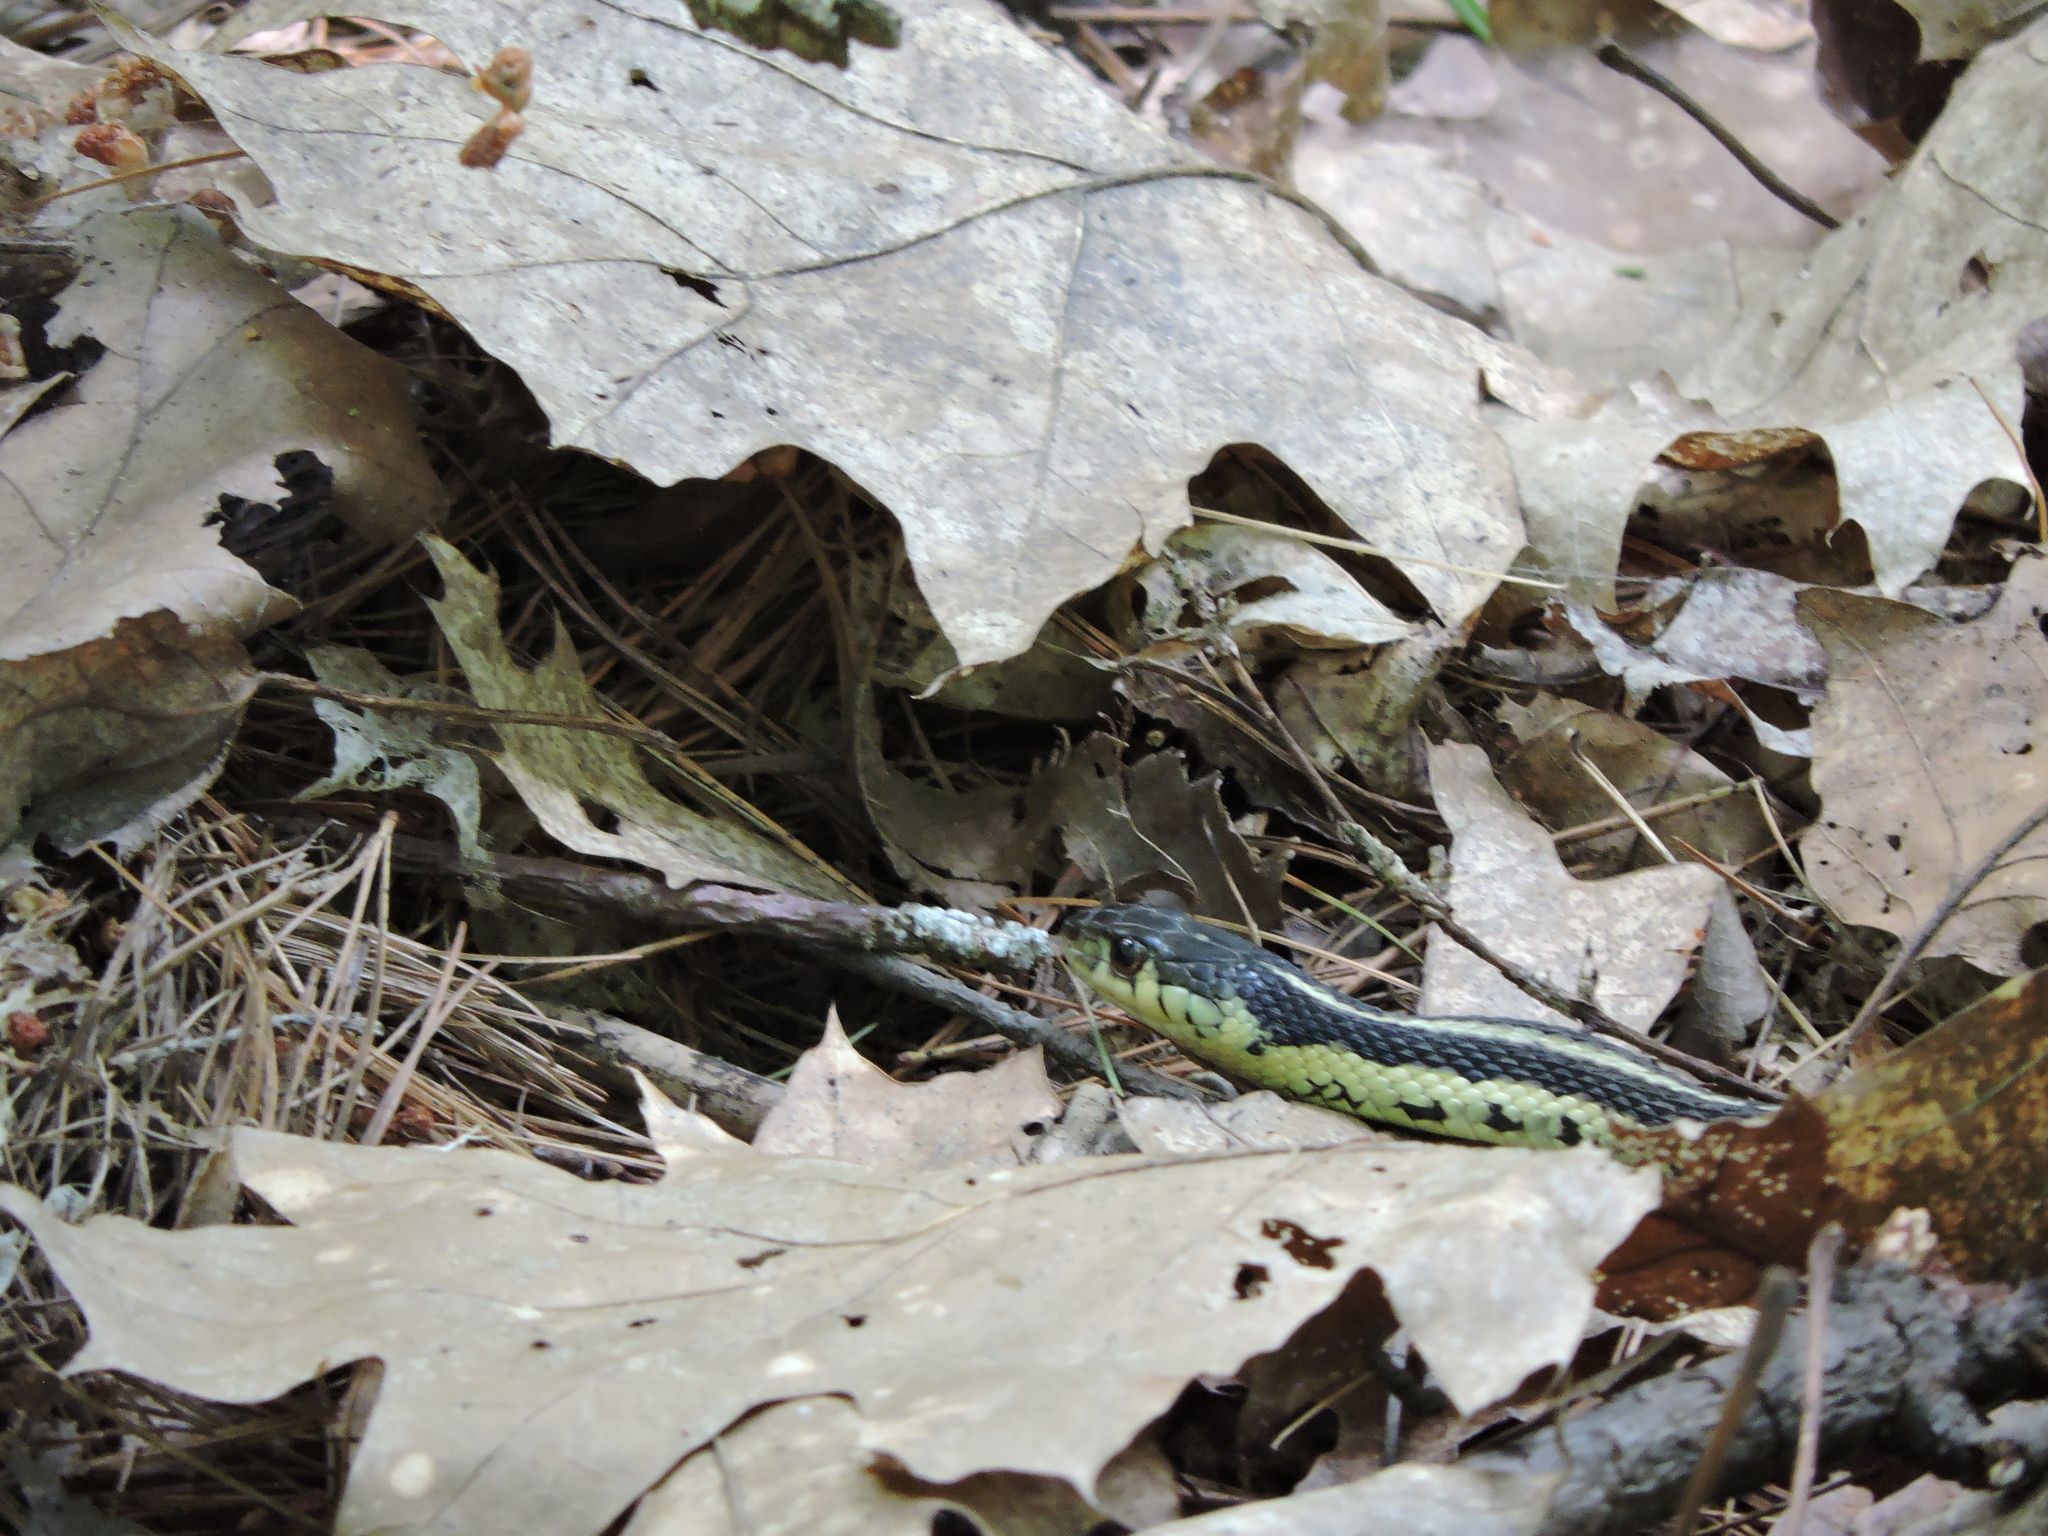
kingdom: Animalia
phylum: Chordata
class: Squamata
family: Colubridae
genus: Thamnophis
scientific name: Thamnophis sirtalis
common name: Common garter snake
